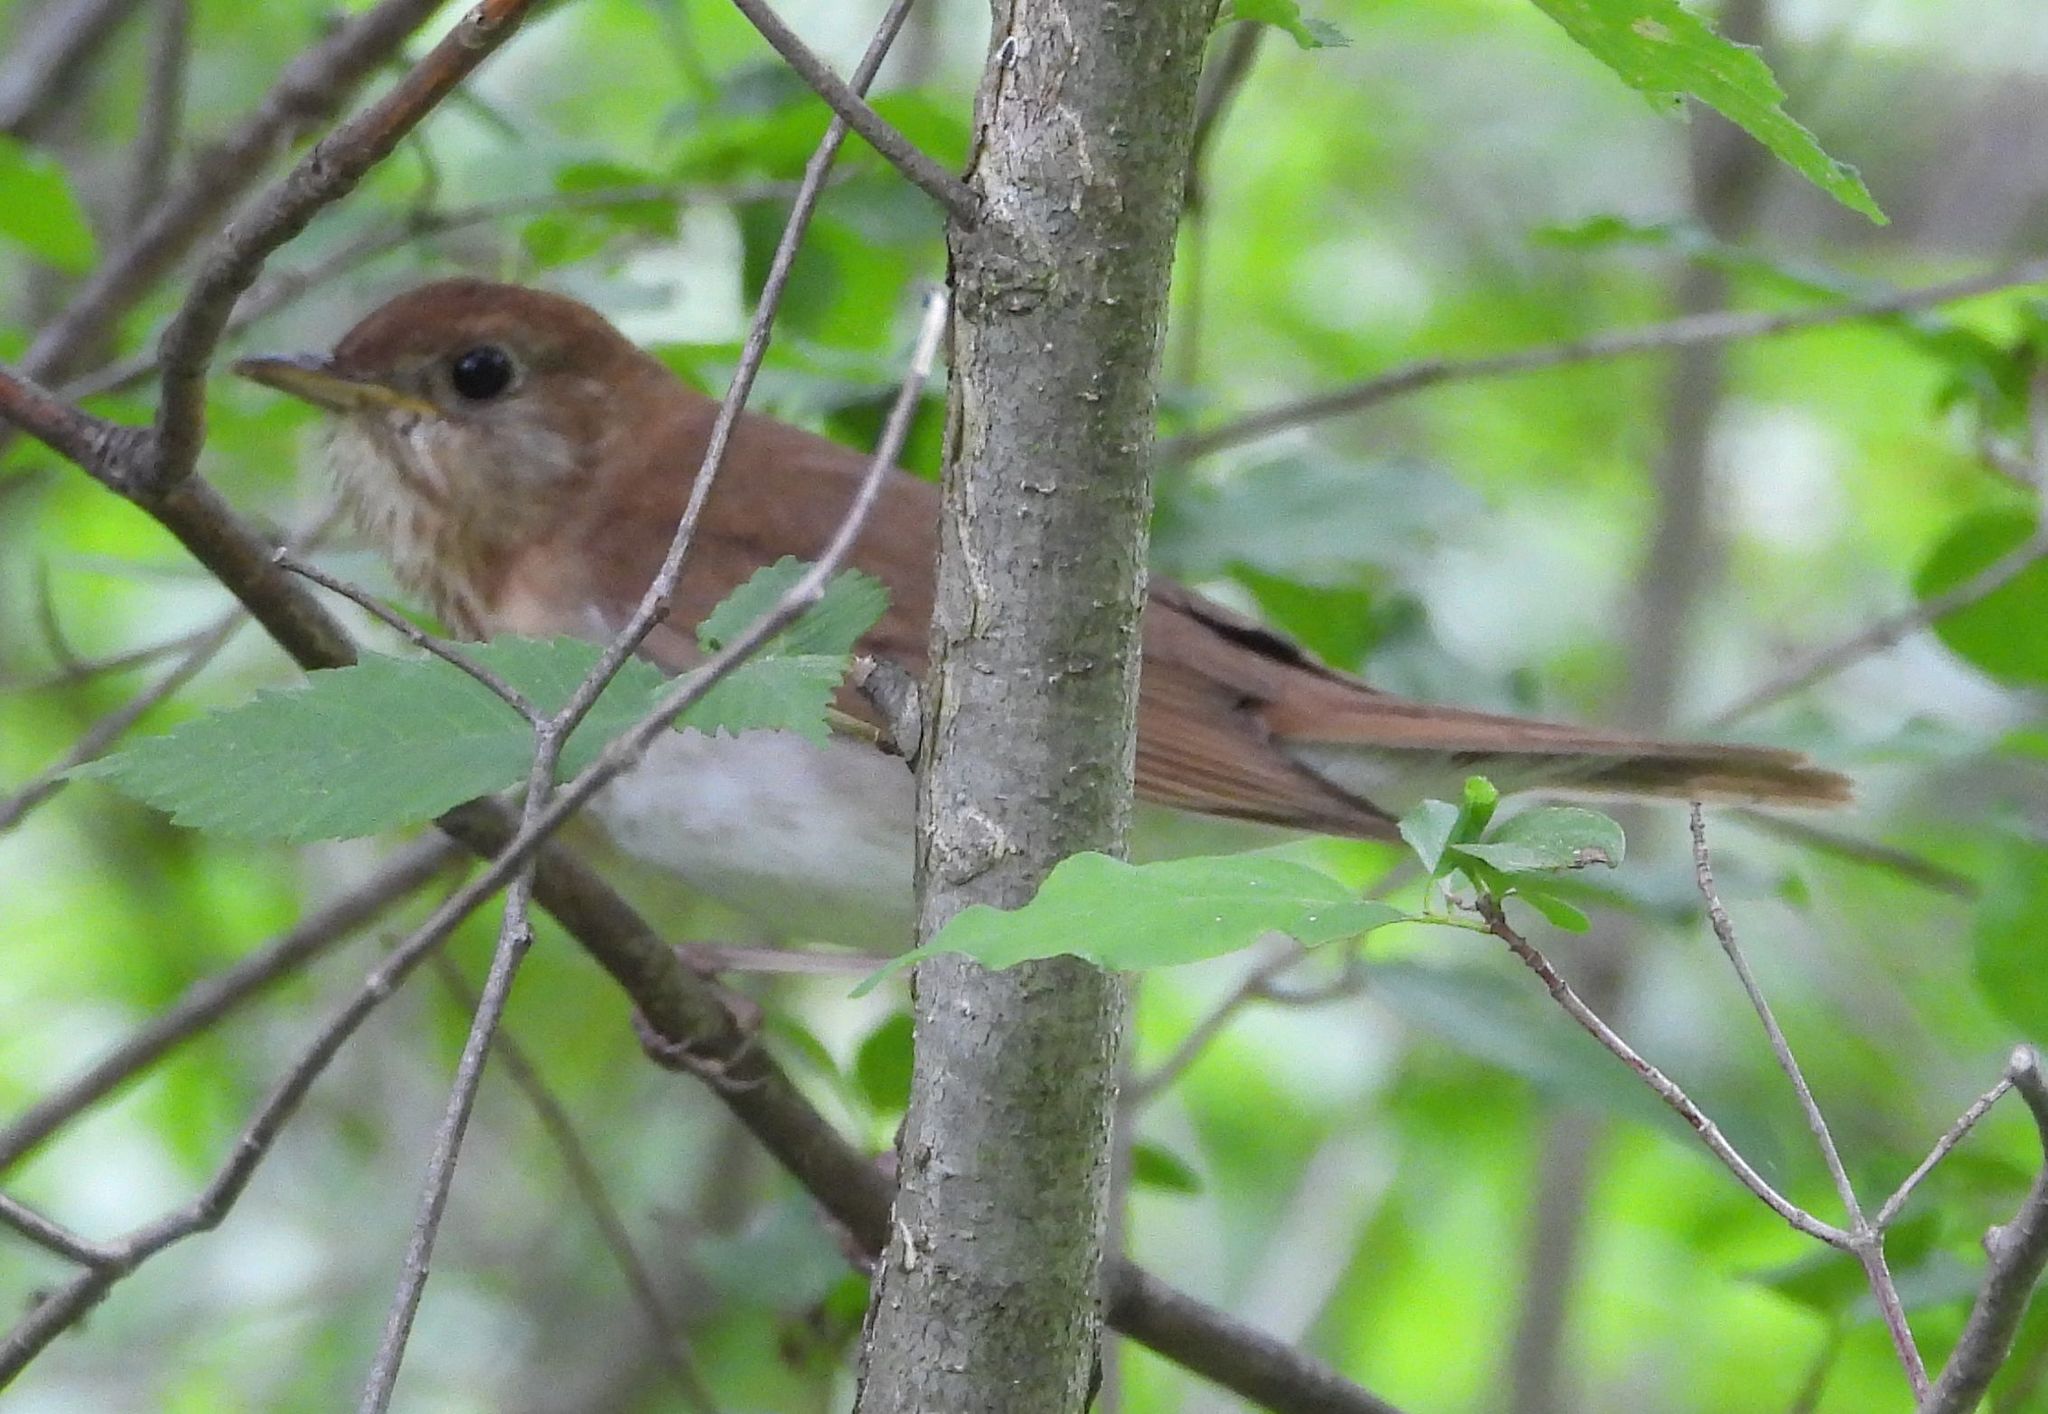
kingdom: Animalia
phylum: Chordata
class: Aves
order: Passeriformes
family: Turdidae
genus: Catharus
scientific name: Catharus fuscescens
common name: Veery
